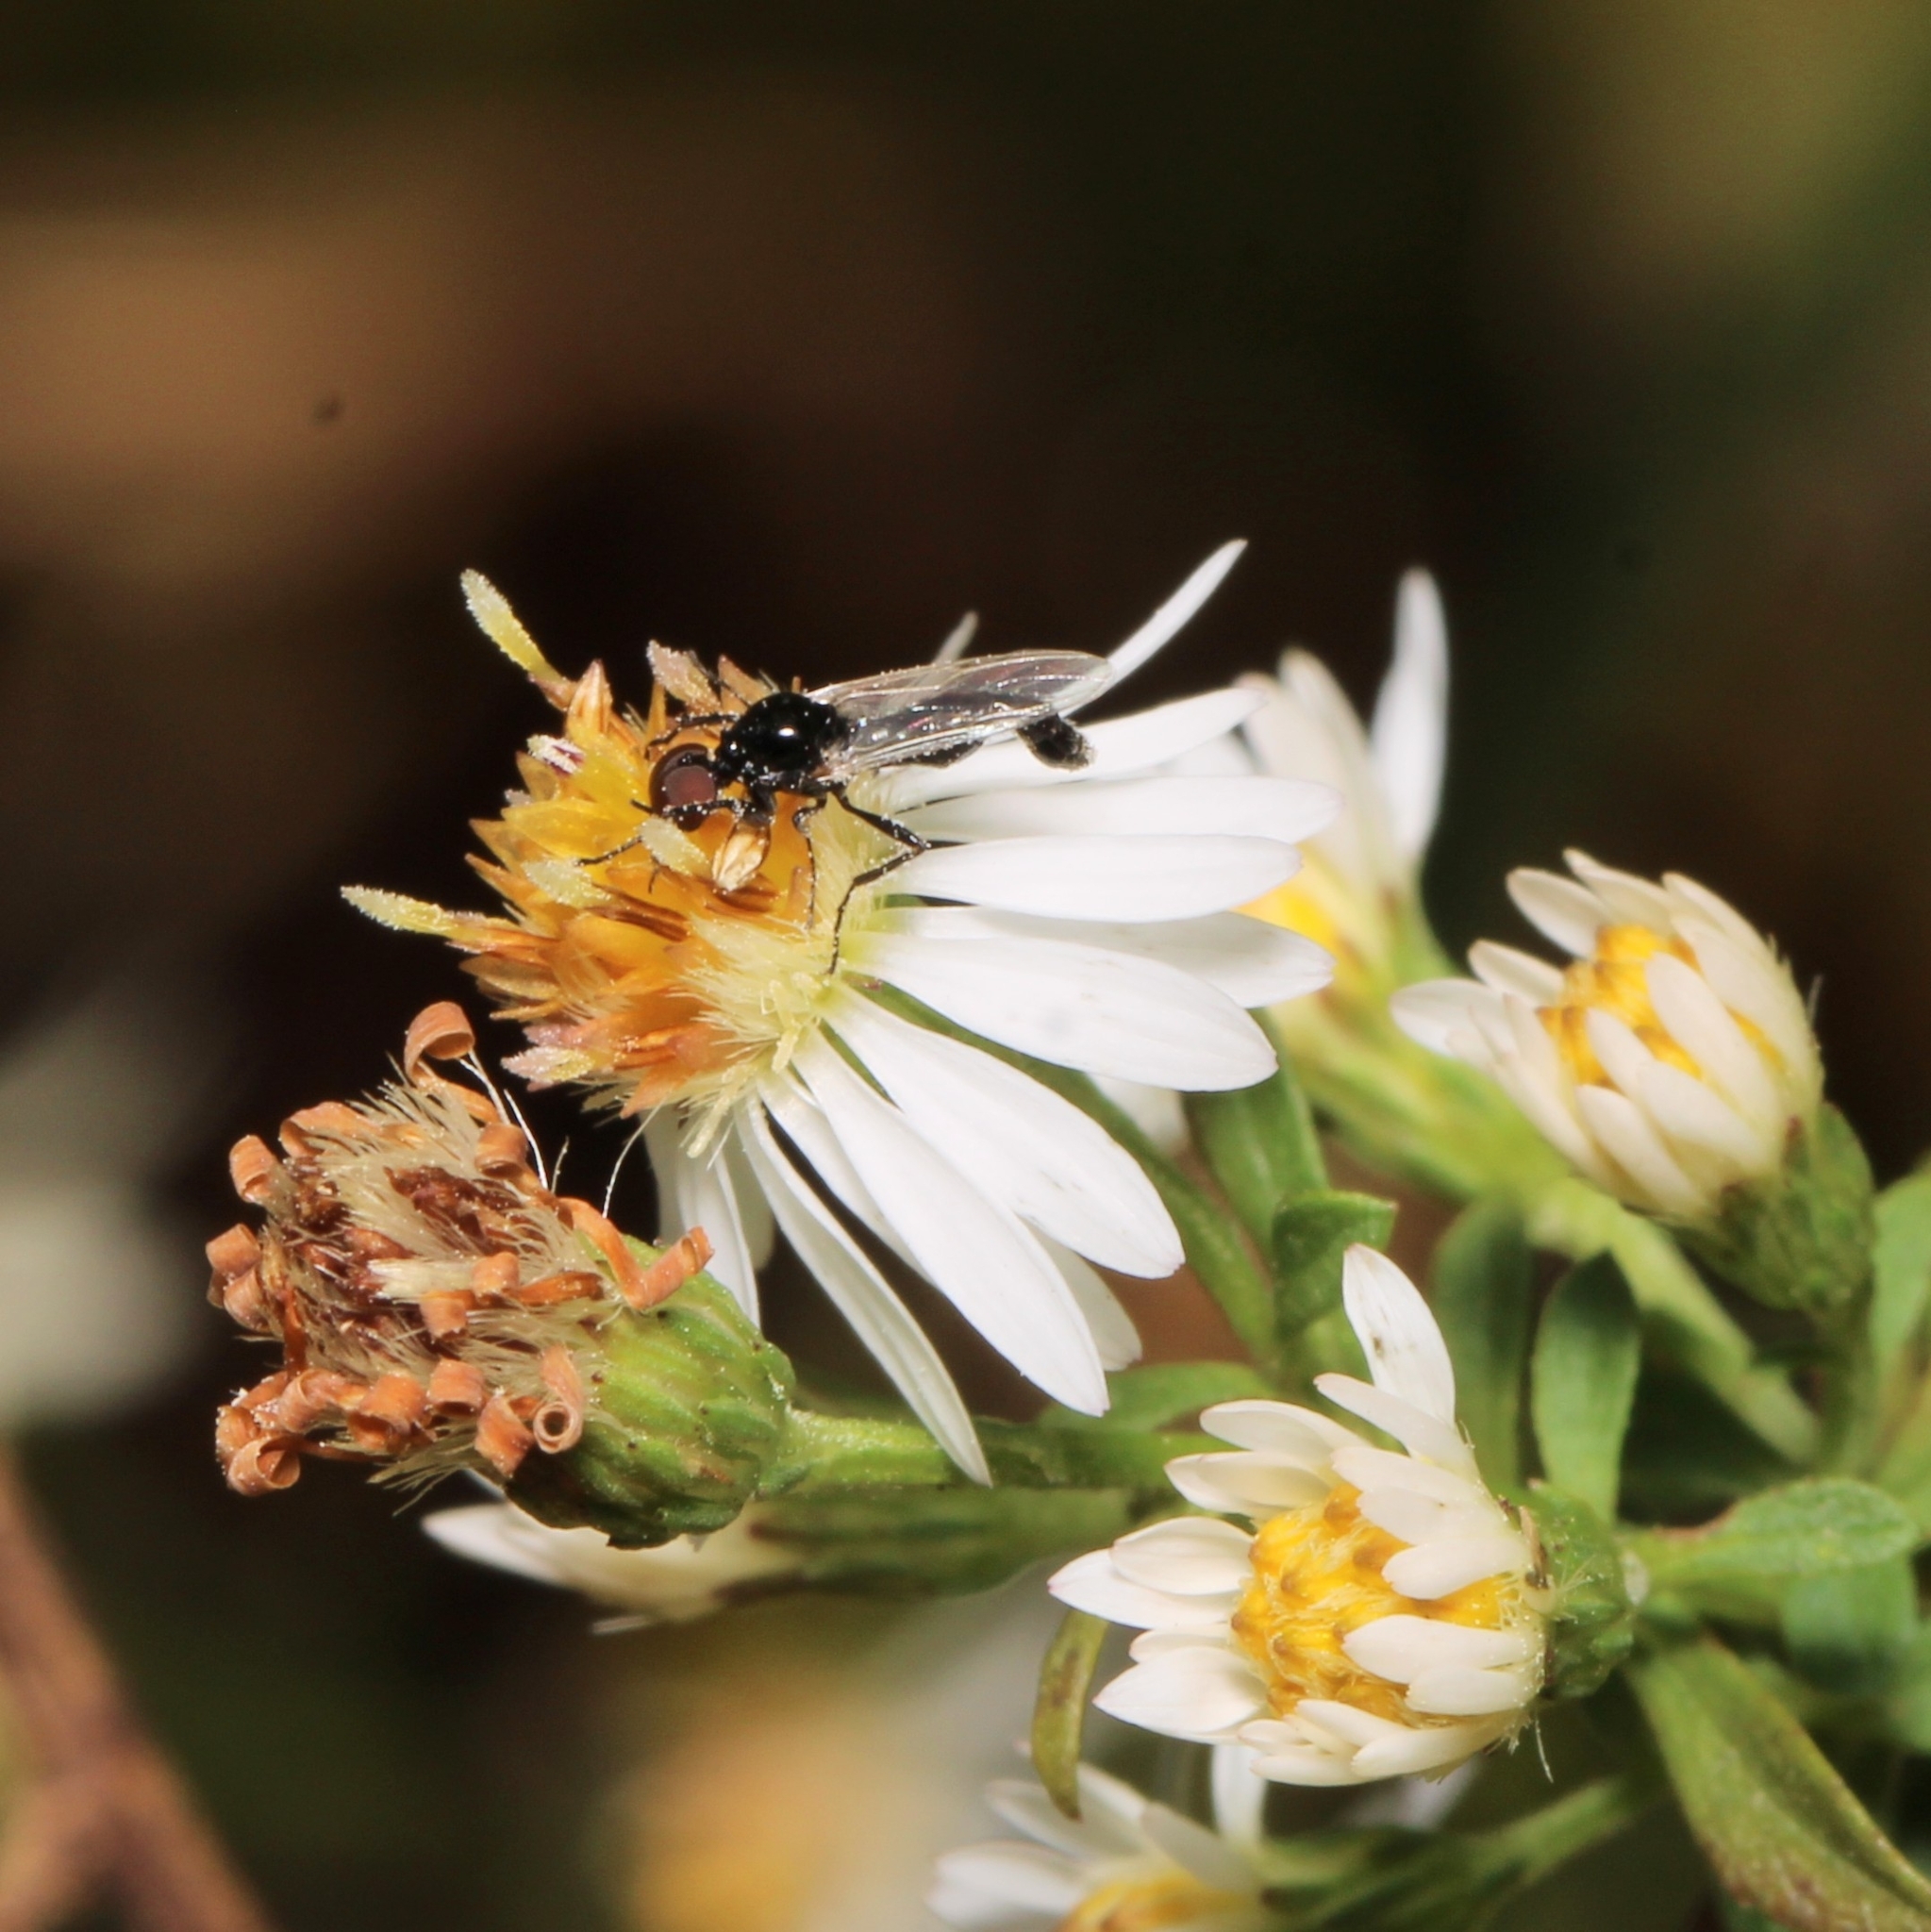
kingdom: Animalia
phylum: Arthropoda
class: Insecta
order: Diptera
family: Bibionidae
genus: Dilophus
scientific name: Dilophus
